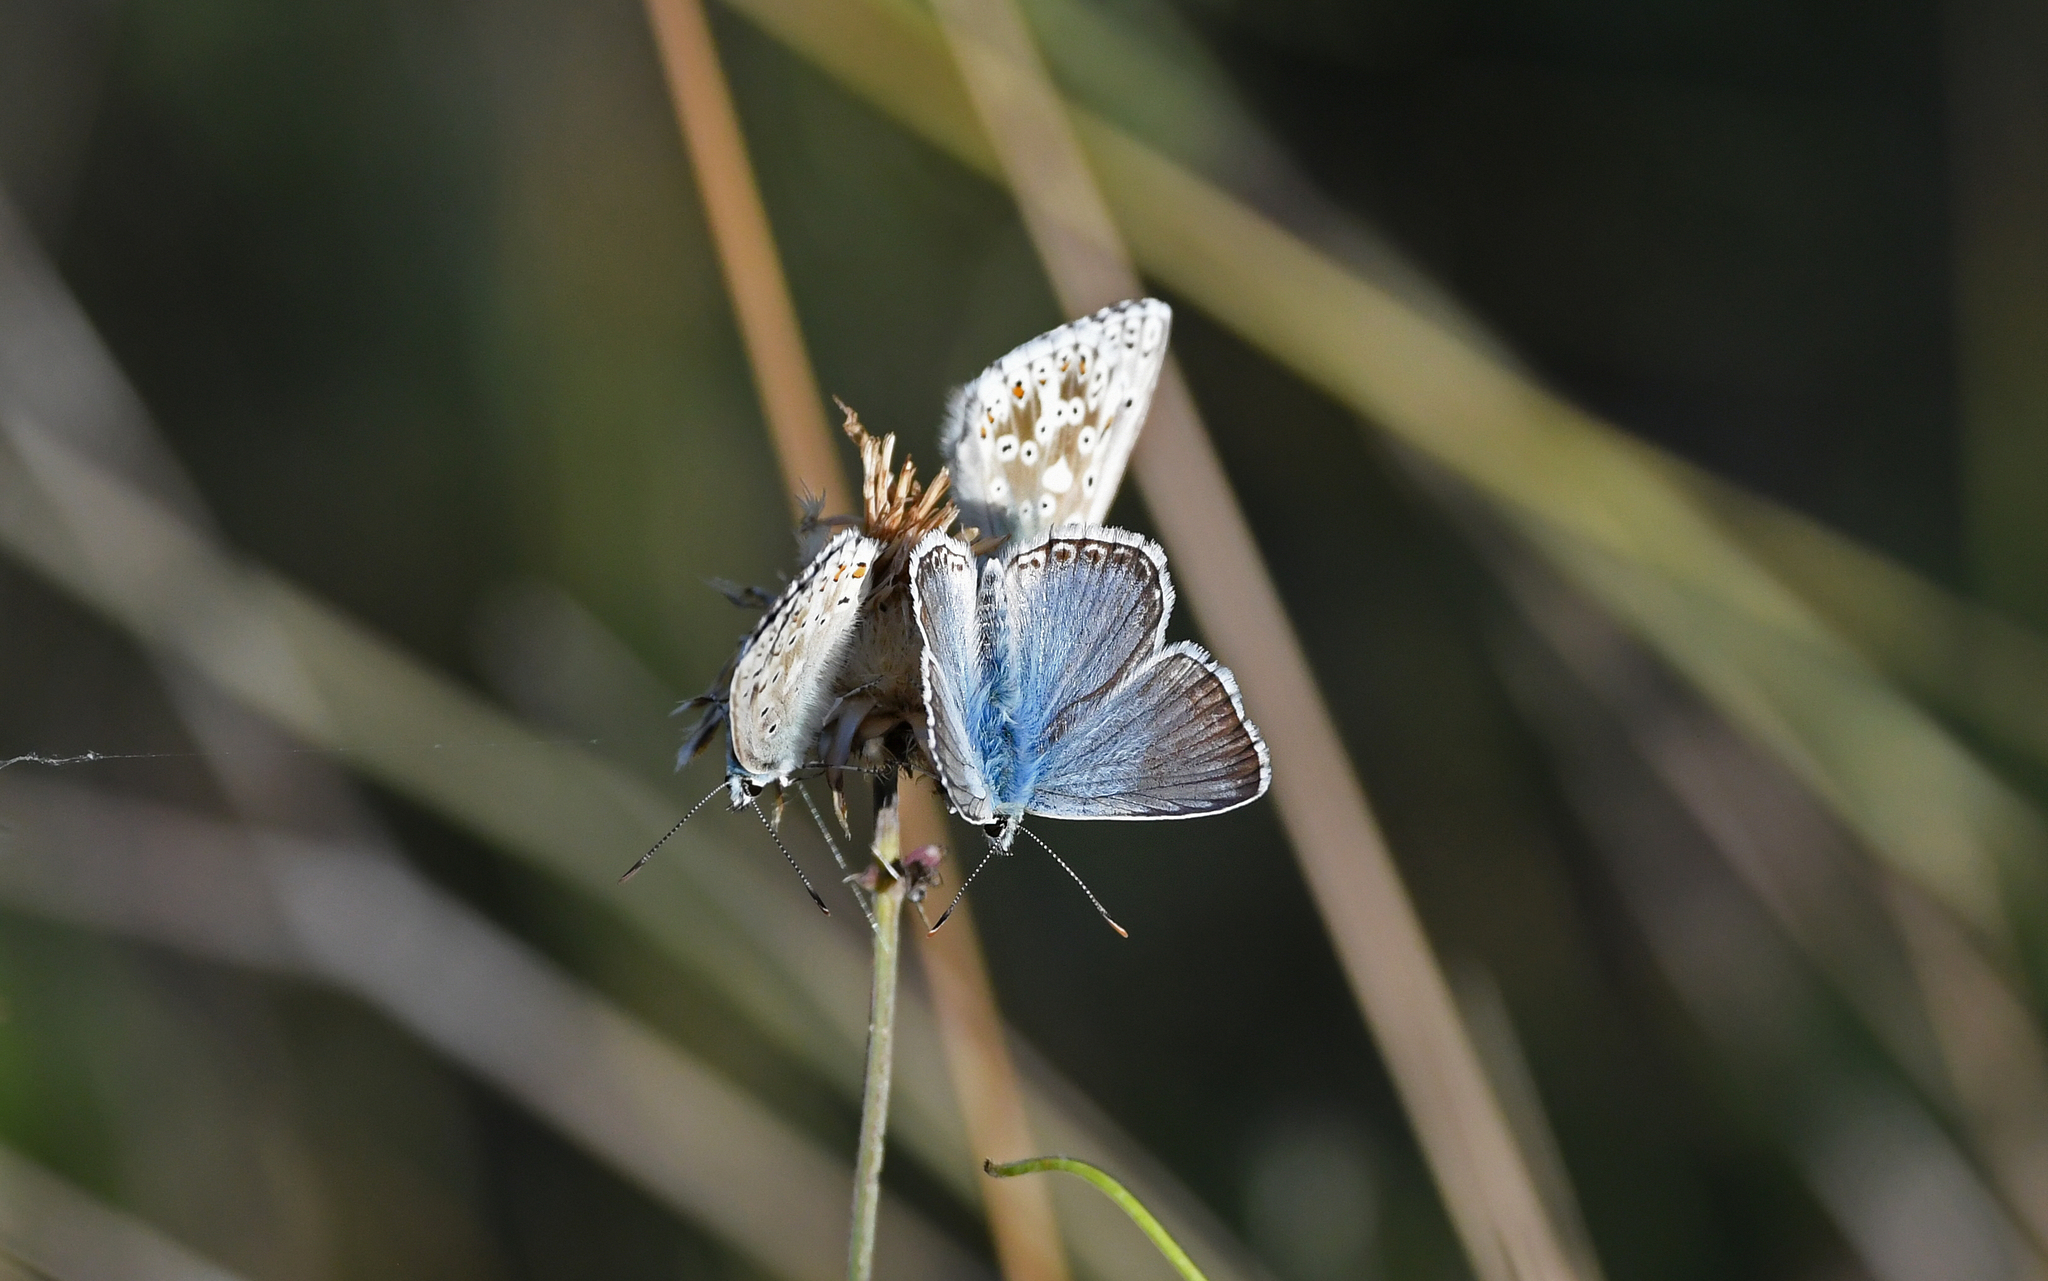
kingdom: Animalia
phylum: Arthropoda
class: Insecta
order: Lepidoptera
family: Lycaenidae
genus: Lysandra
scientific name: Lysandra coridon
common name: Chalkhill blue
